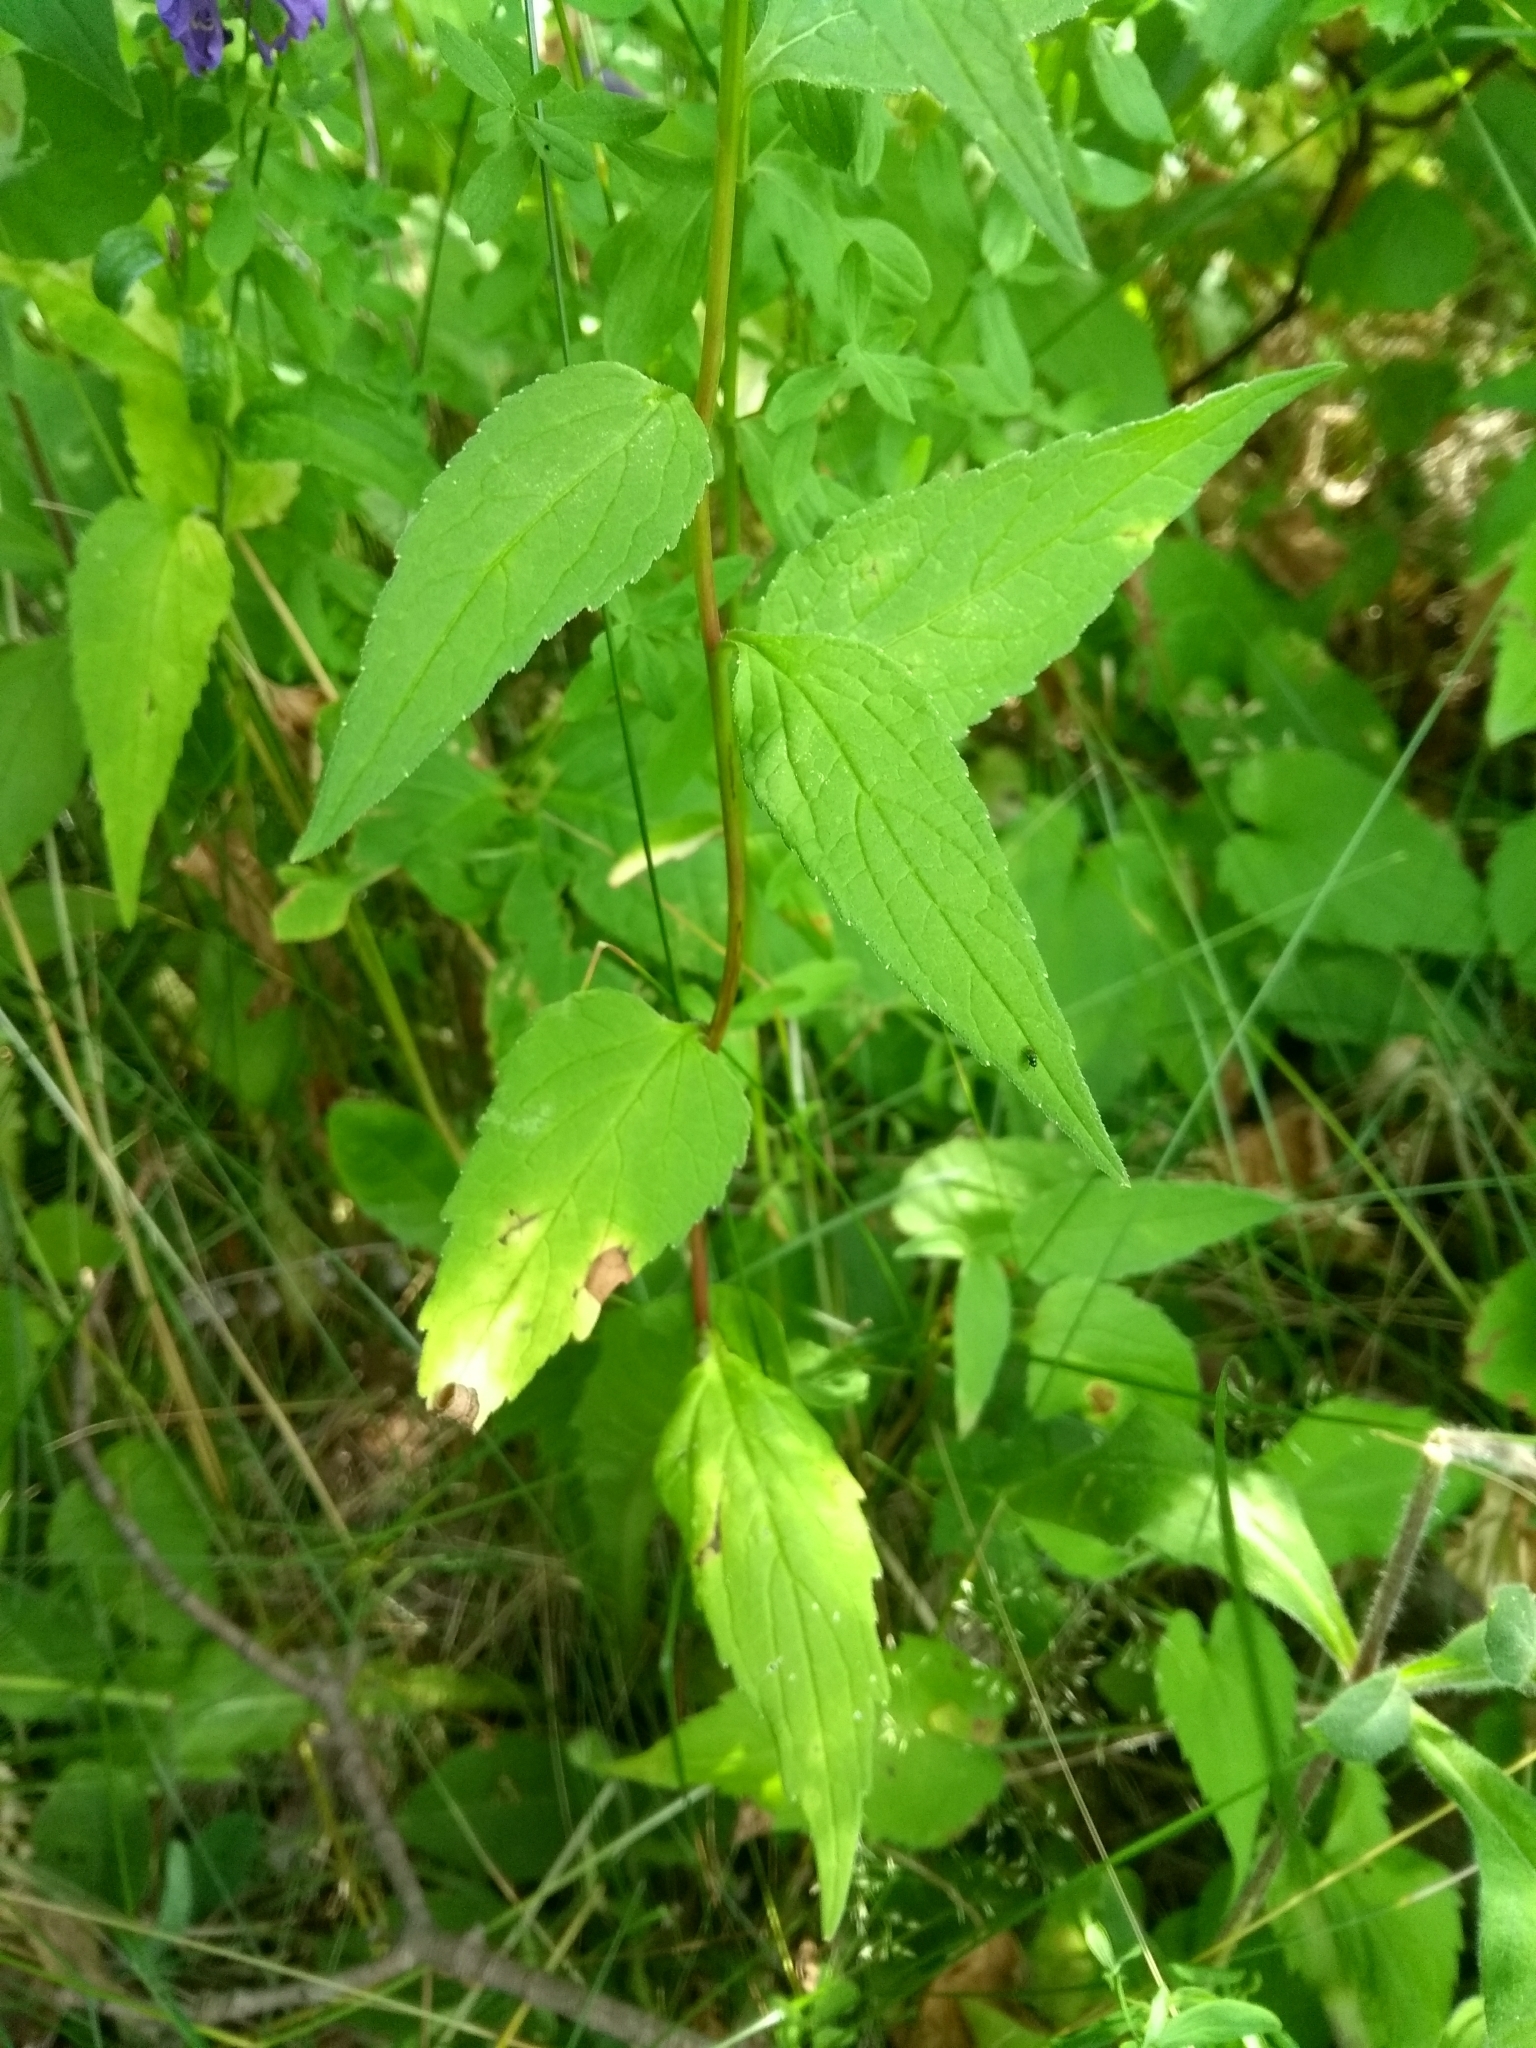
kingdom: Plantae
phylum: Tracheophyta
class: Magnoliopsida
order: Asterales
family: Campanulaceae
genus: Campanula
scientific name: Campanula rapunculoides
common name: Creeping bellflower
